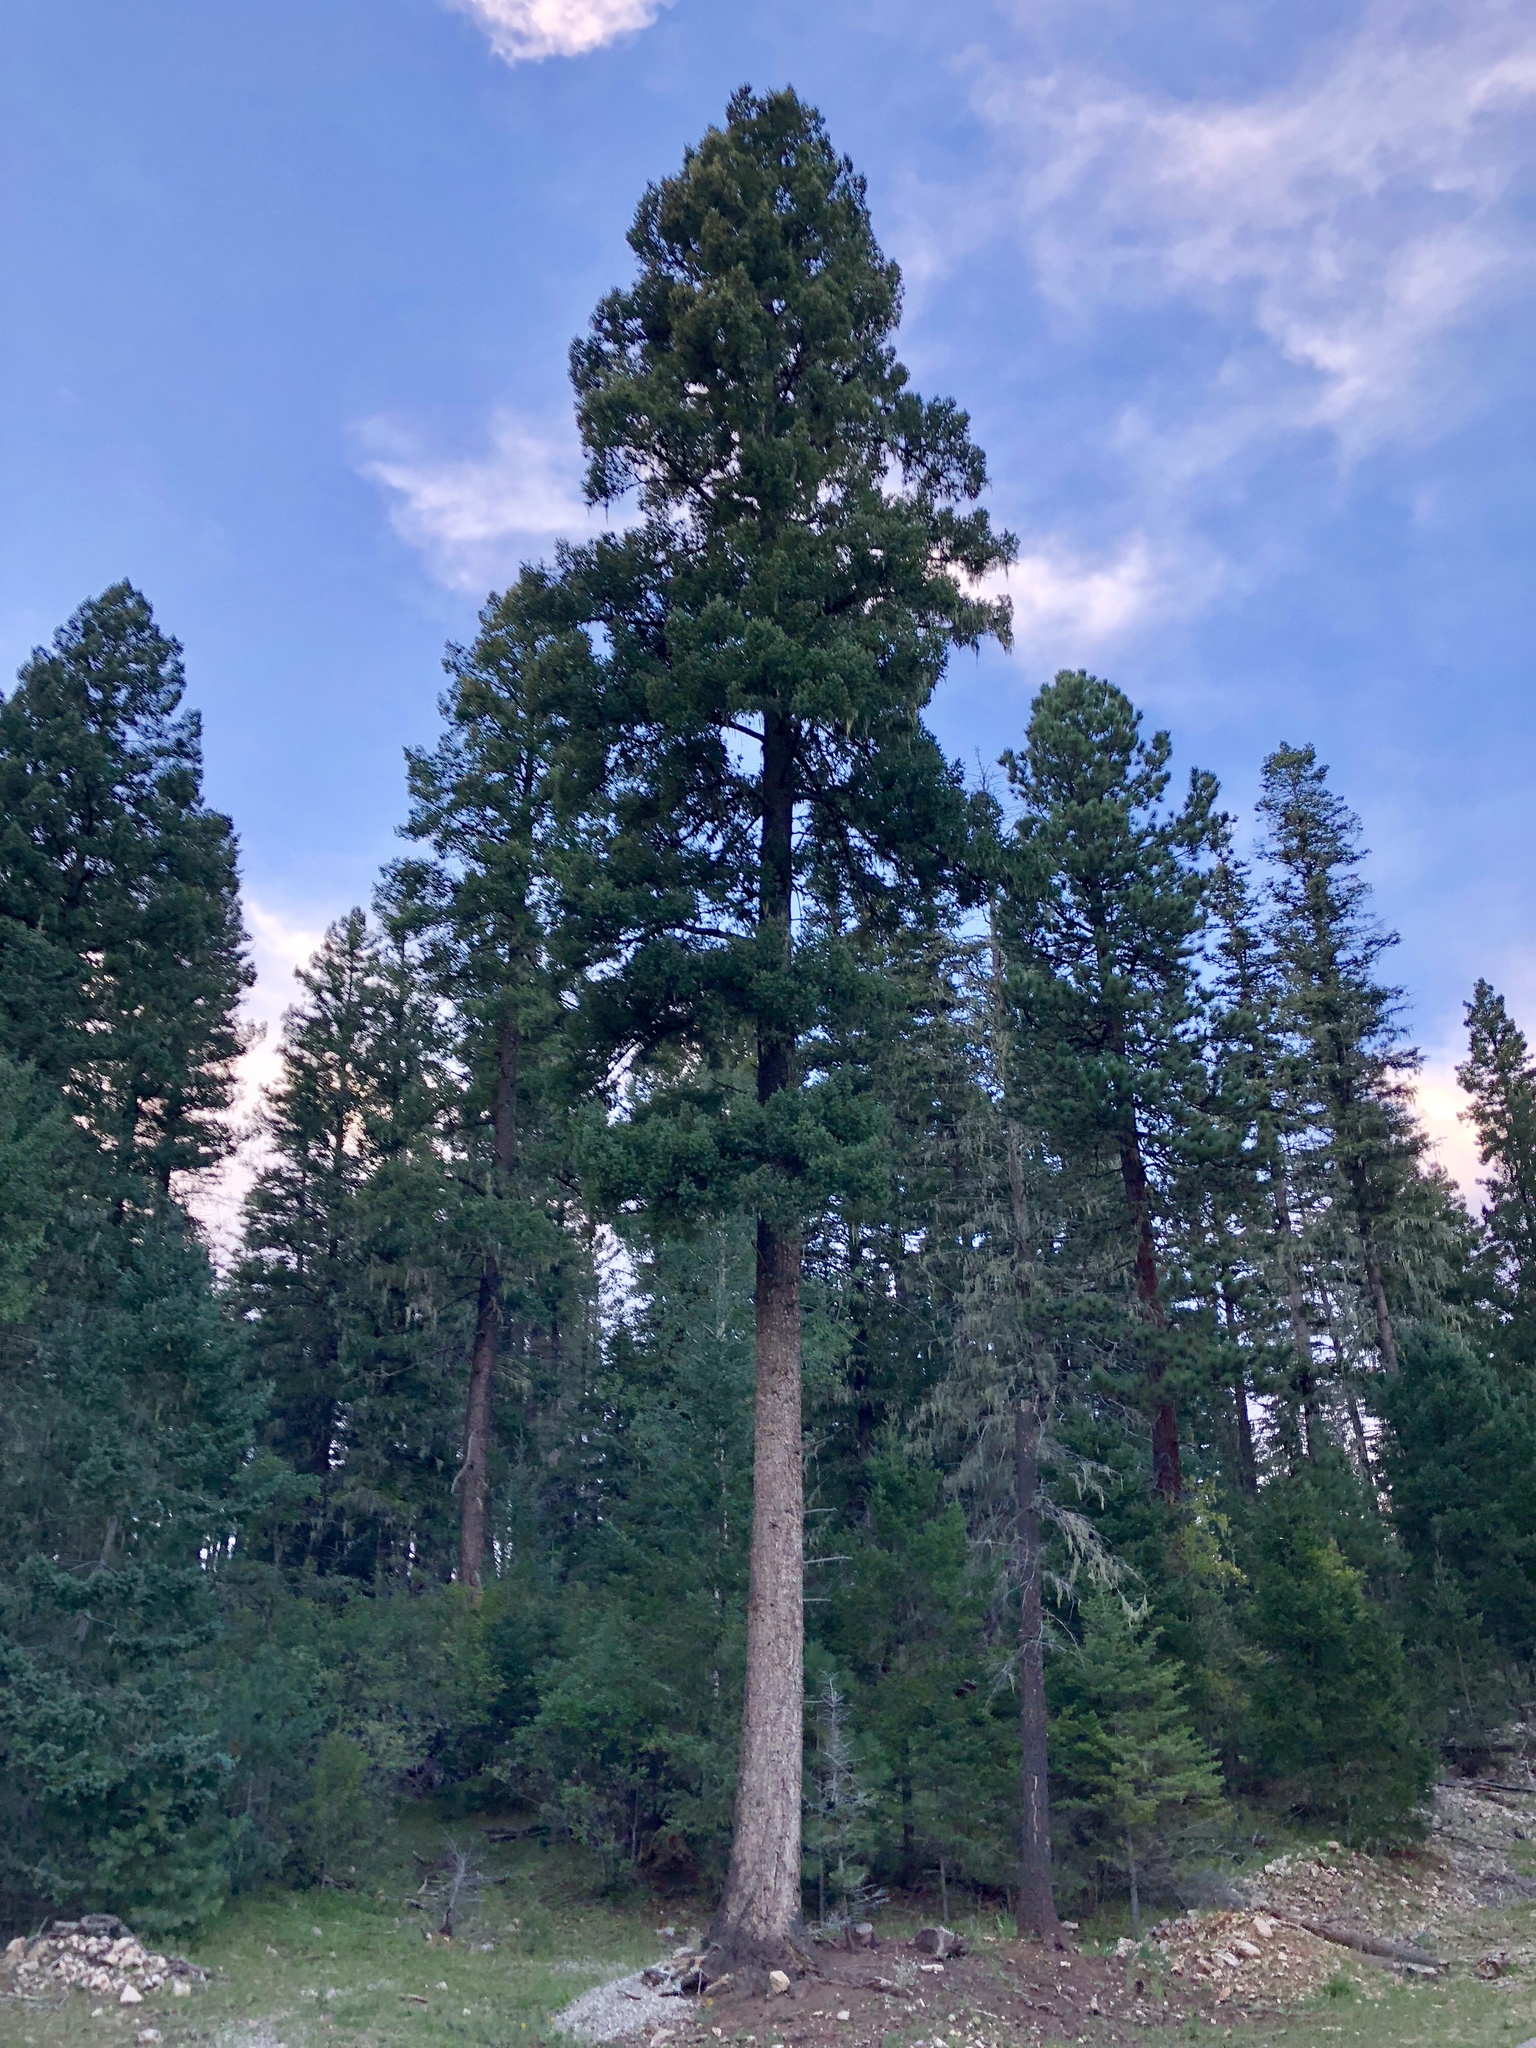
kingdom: Plantae
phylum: Tracheophyta
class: Pinopsida
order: Pinales
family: Pinaceae
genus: Pseudotsuga
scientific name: Pseudotsuga menziesii
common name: Douglas fir
